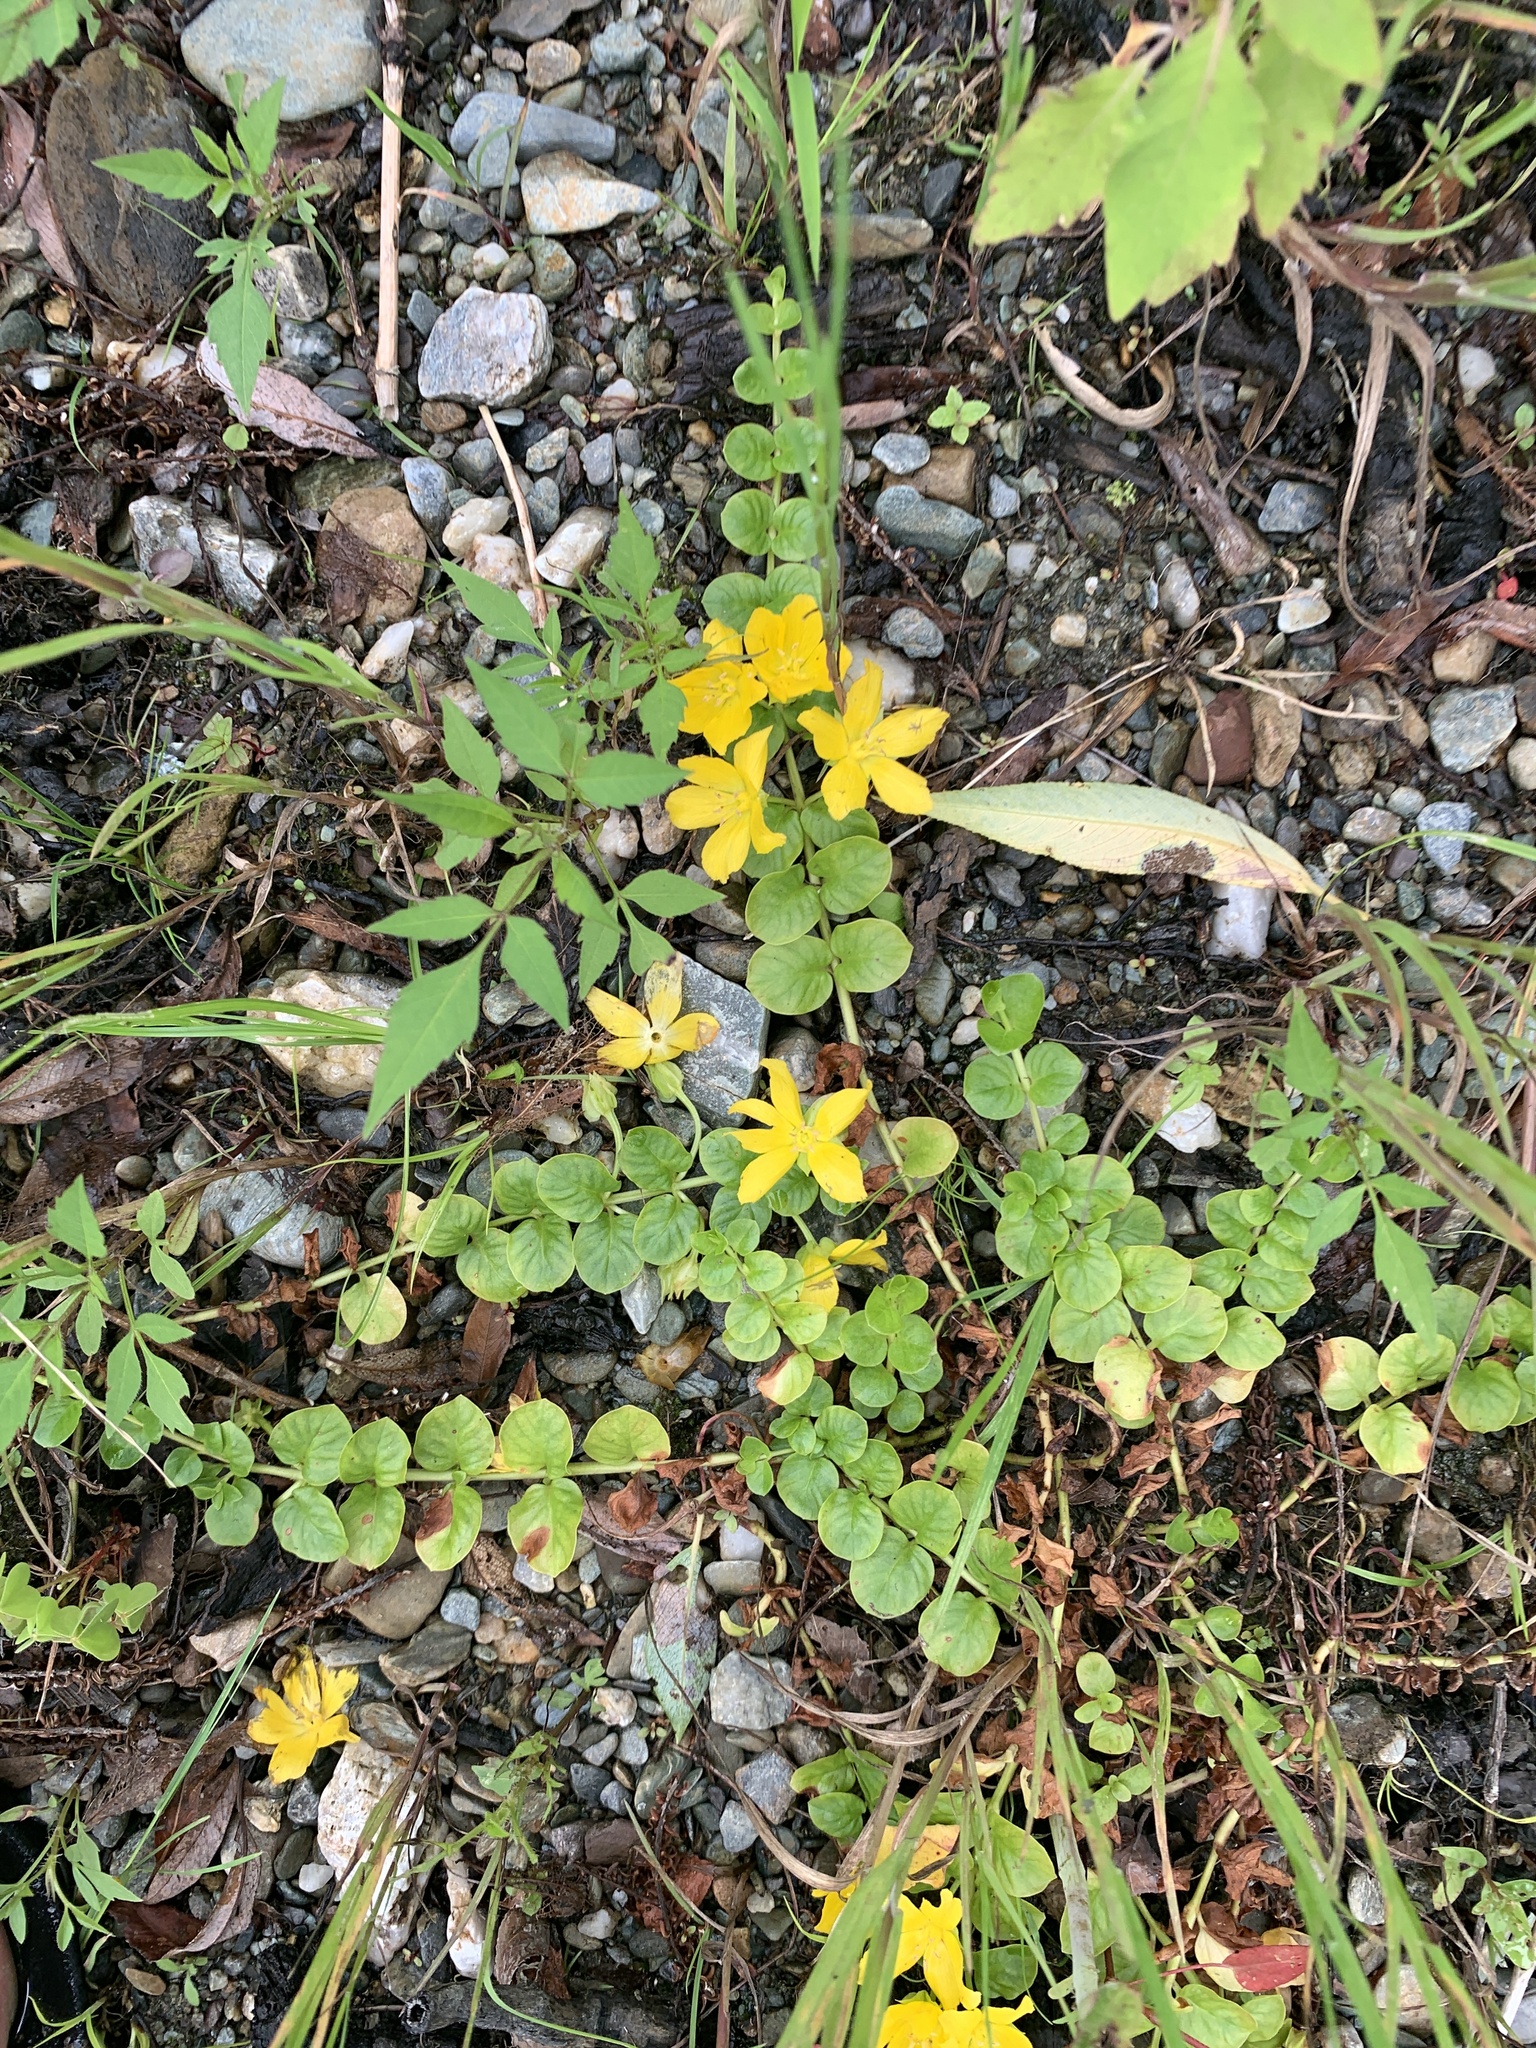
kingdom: Plantae
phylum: Tracheophyta
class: Magnoliopsida
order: Ericales
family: Primulaceae
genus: Lysimachia
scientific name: Lysimachia nummularia
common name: Moneywort
